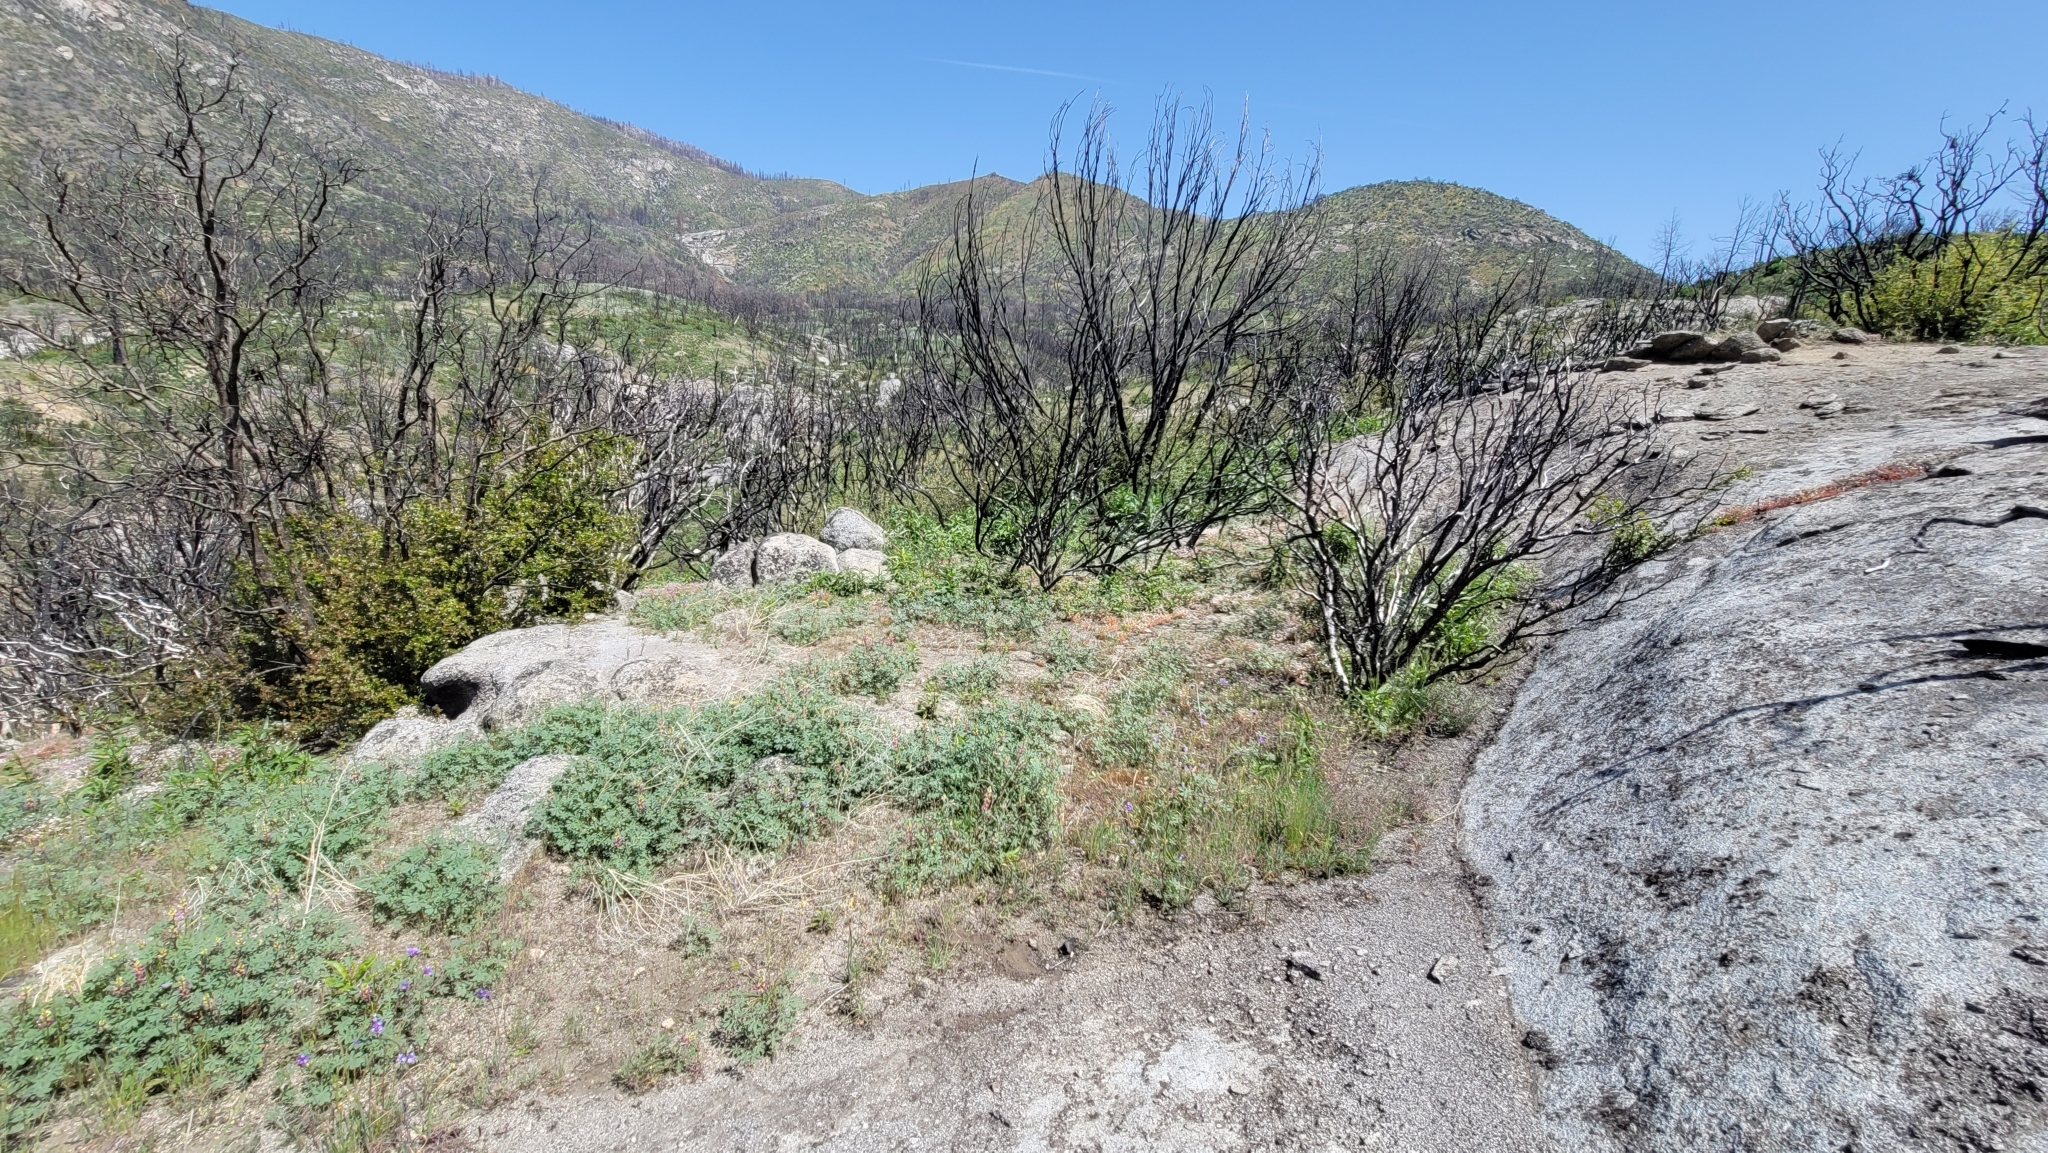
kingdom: Plantae
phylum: Tracheophyta
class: Magnoliopsida
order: Myrtales
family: Onagraceae
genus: Camissonia
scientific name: Camissonia sierrae
